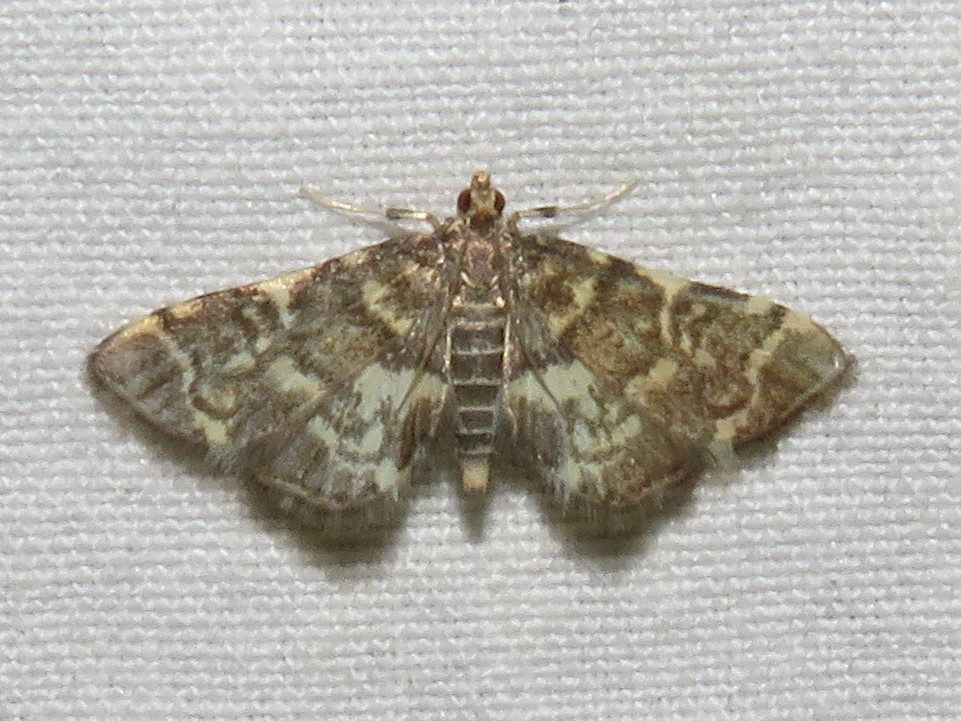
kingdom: Animalia
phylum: Arthropoda
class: Insecta
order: Lepidoptera
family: Crambidae
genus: Anageshna
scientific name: Anageshna primordialis
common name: Yellow-spotted webworm moth
